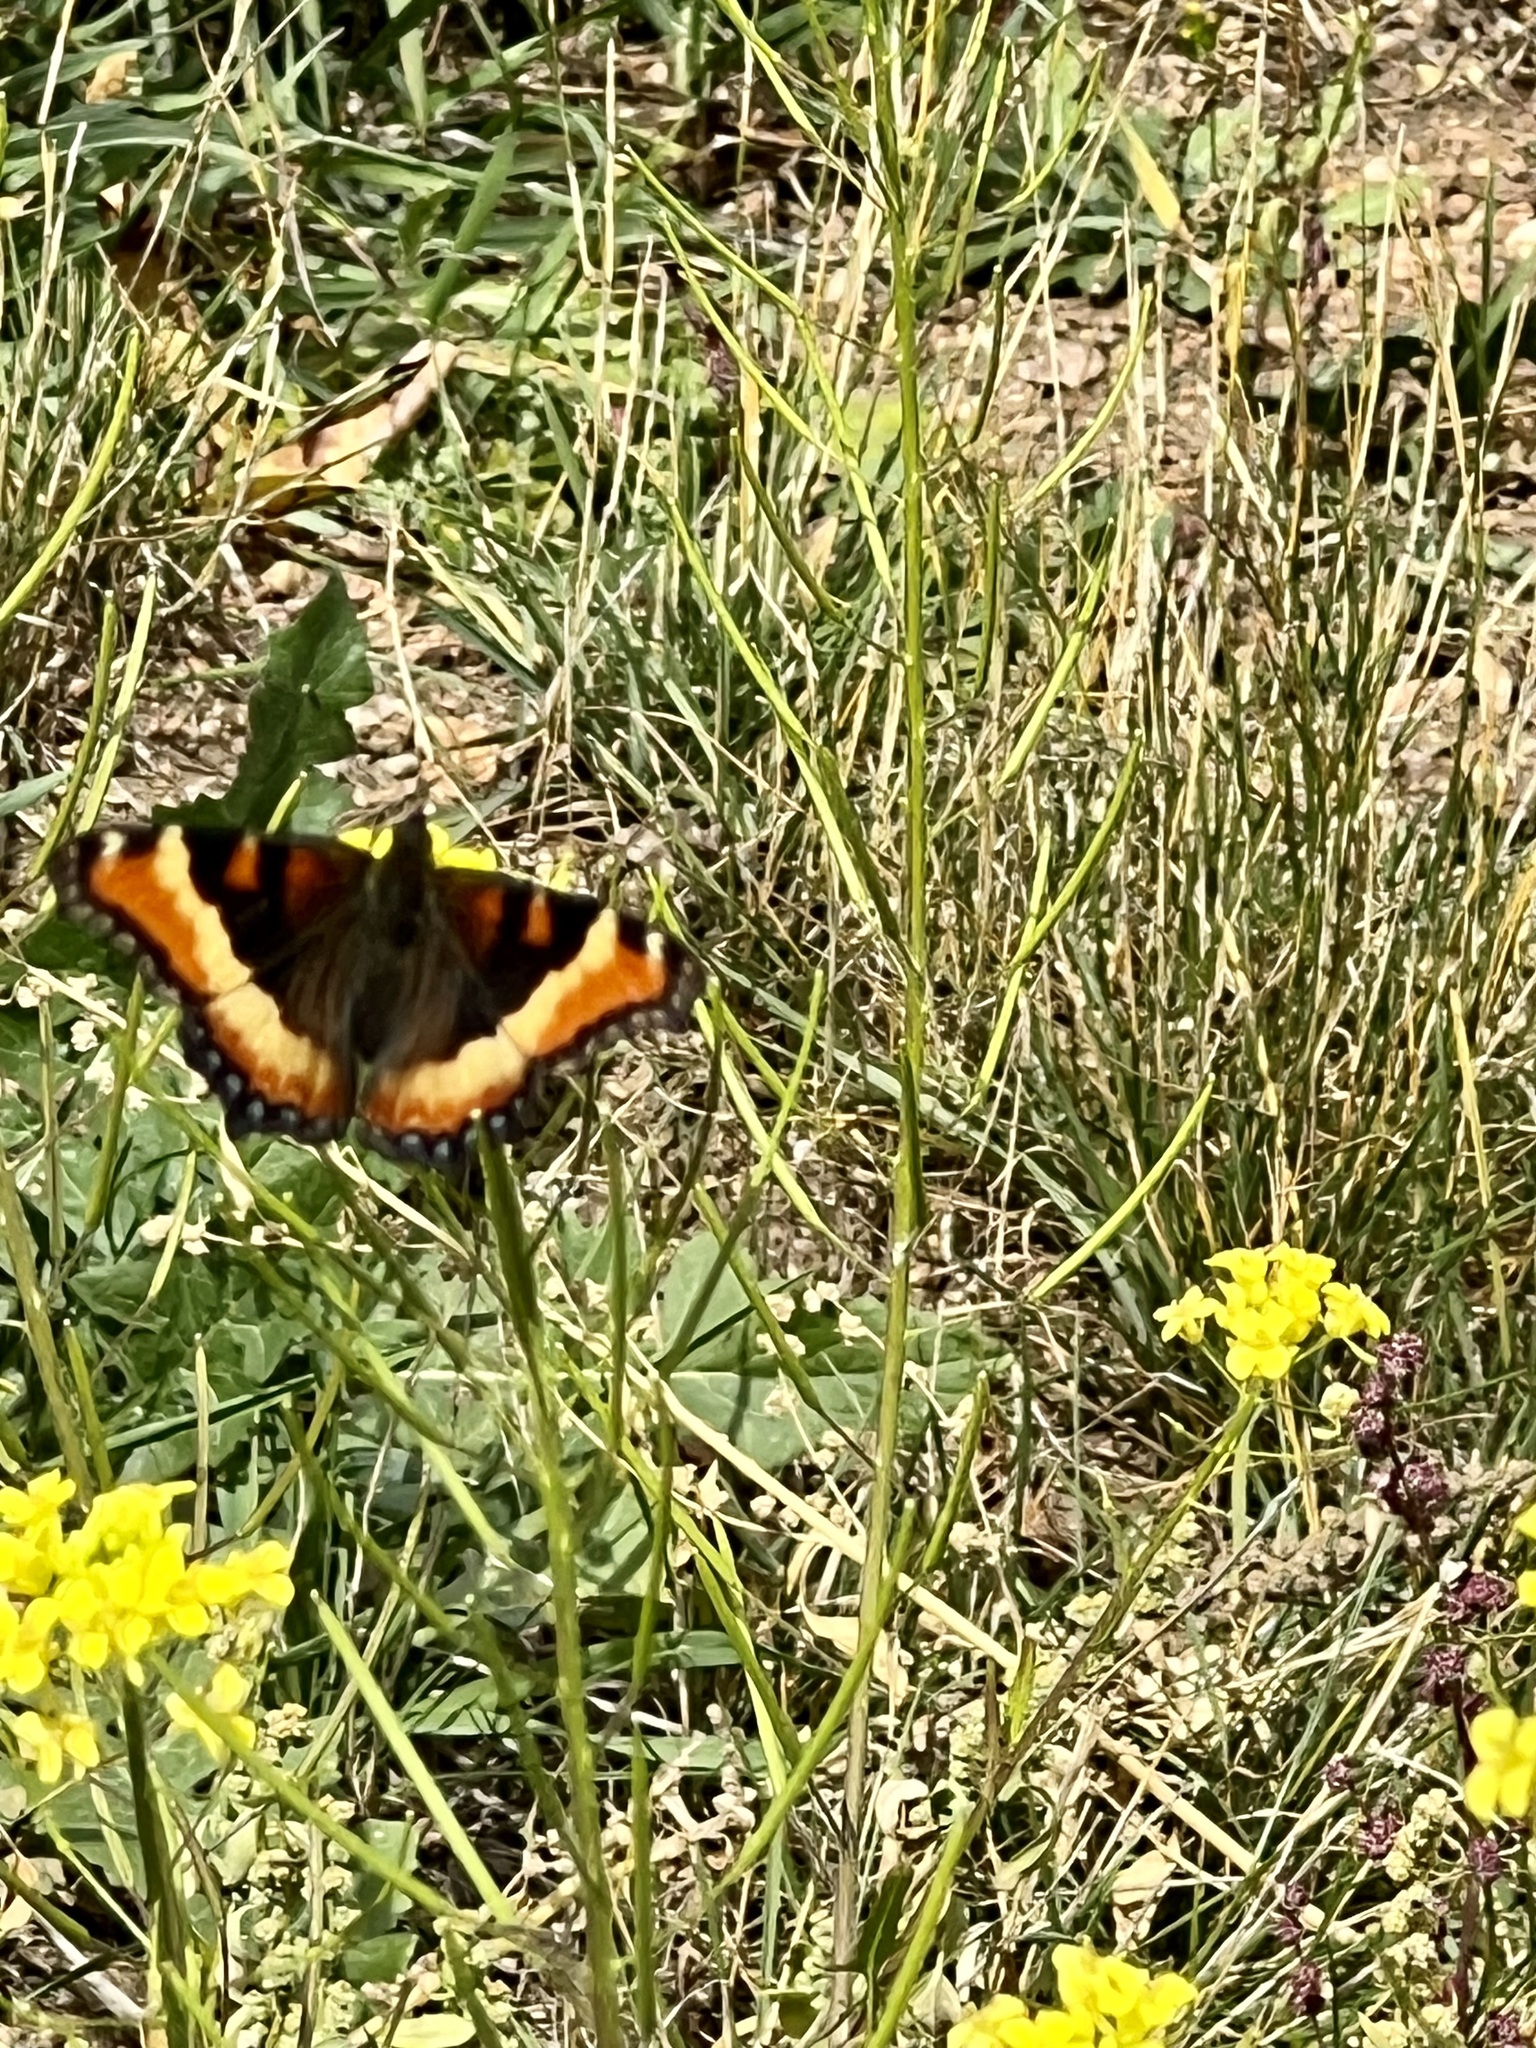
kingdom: Animalia
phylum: Arthropoda
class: Insecta
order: Lepidoptera
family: Nymphalidae
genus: Aglais
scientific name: Aglais milberti
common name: Milbert's tortoiseshell
